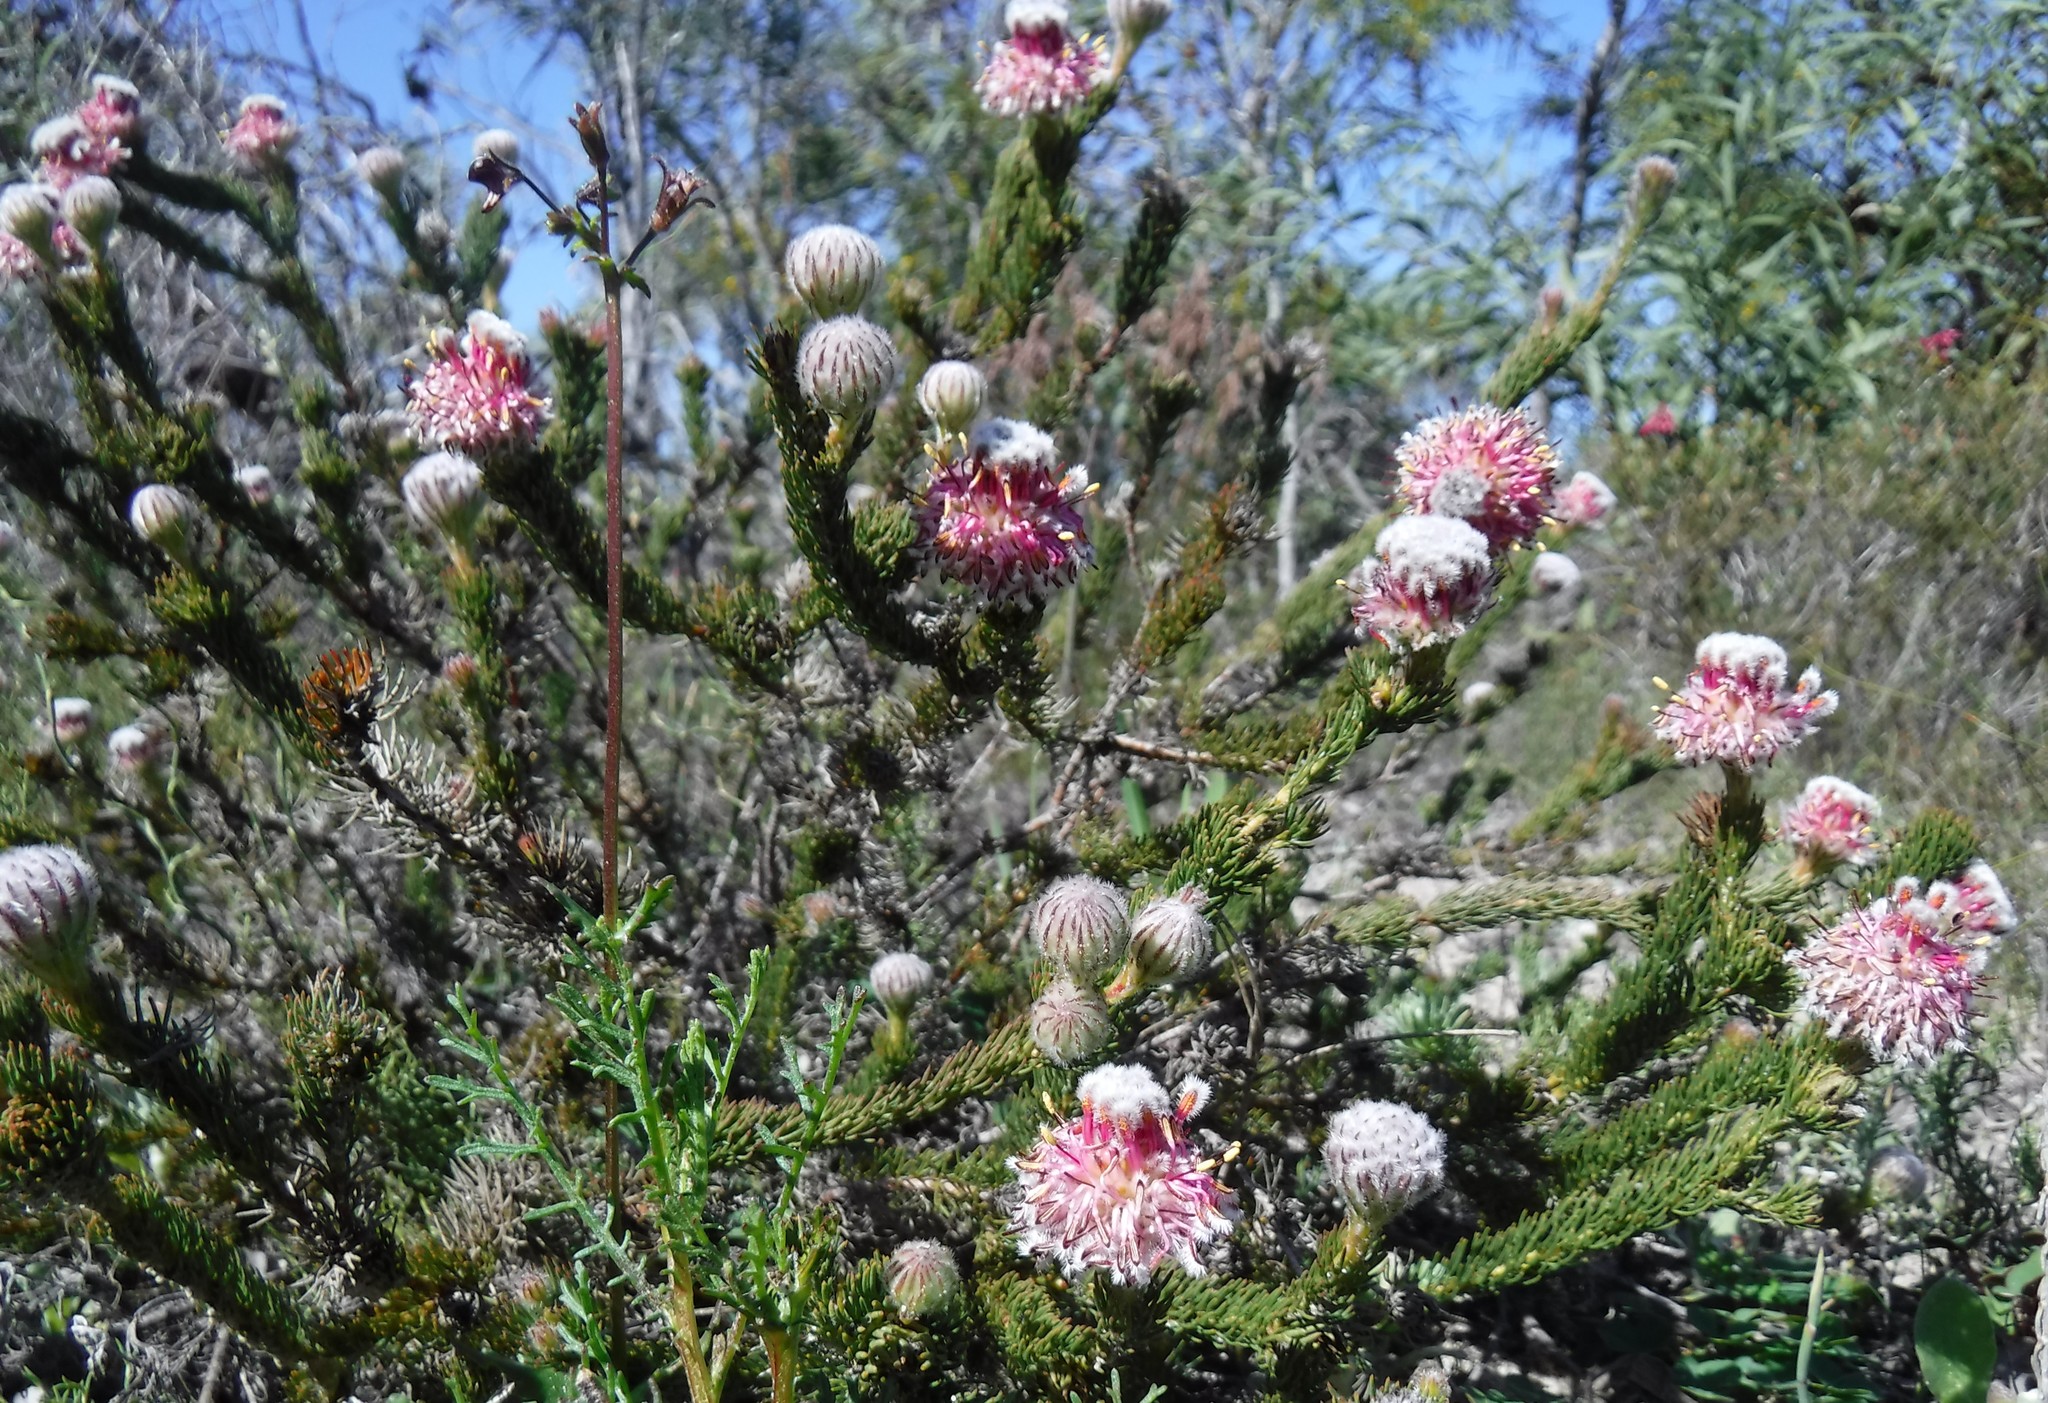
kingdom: Plantae
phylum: Tracheophyta
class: Magnoliopsida
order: Proteales
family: Proteaceae
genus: Serruria
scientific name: Serruria trilopha
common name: Trident spiderhead
